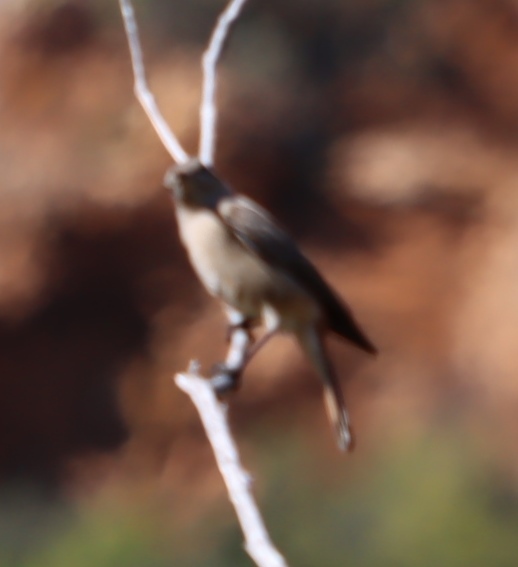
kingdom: Animalia
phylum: Chordata
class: Aves
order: Passeriformes
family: Muscicapidae
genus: Oenanthe
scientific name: Oenanthe familiaris
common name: Familiar chat
